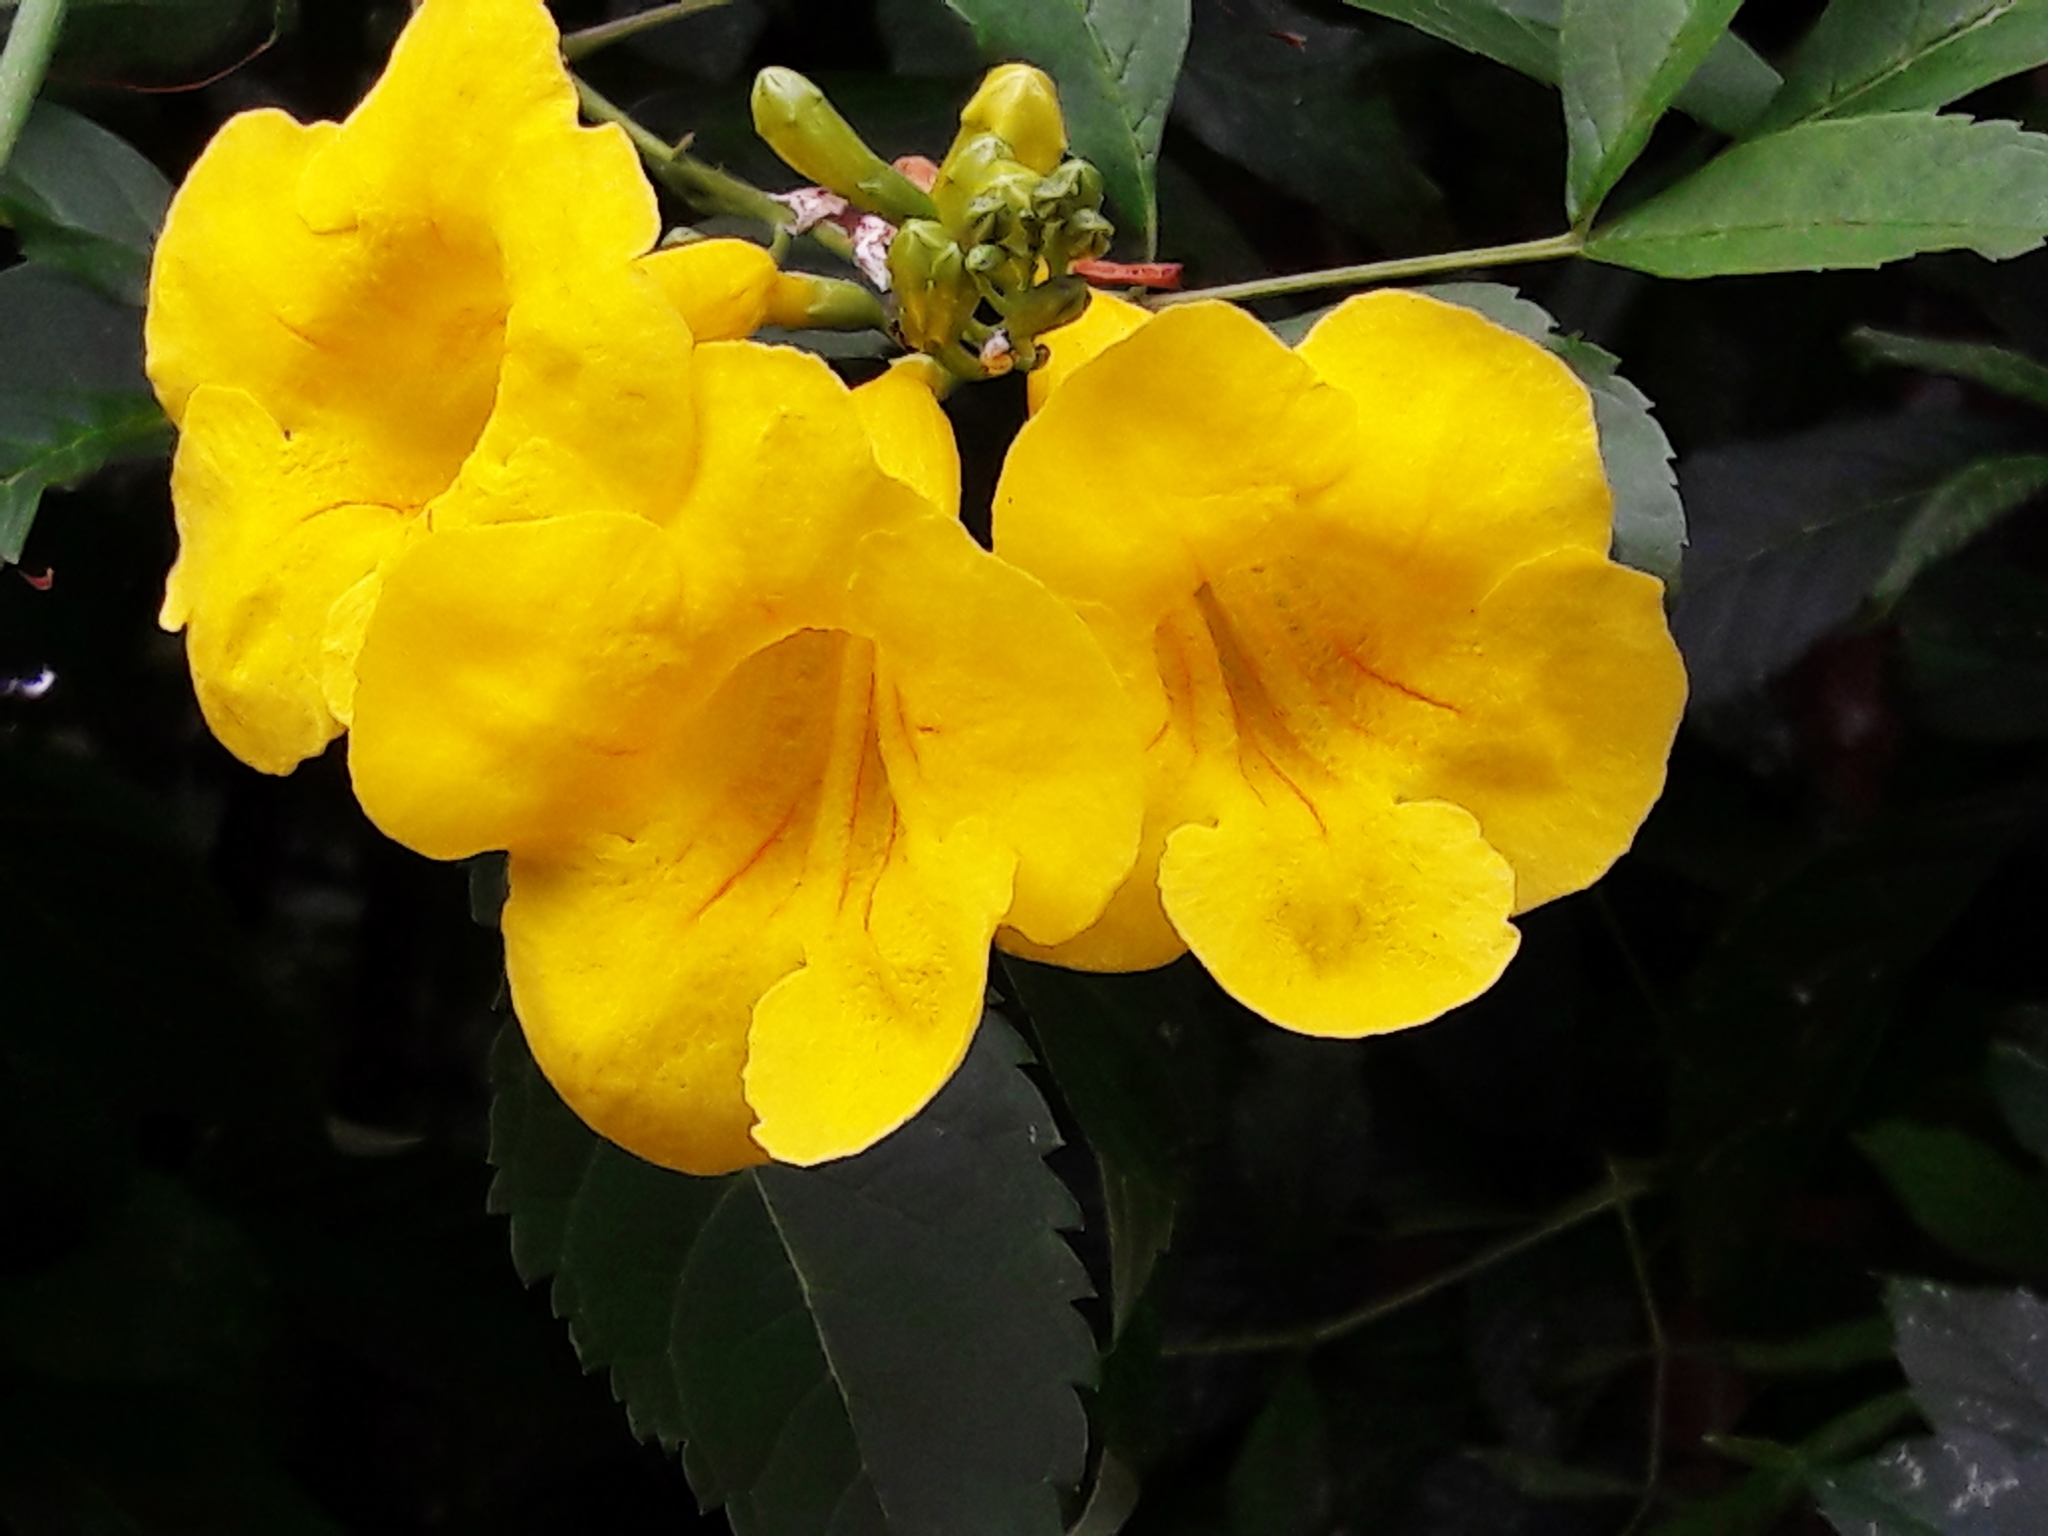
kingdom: Plantae
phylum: Tracheophyta
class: Magnoliopsida
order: Lamiales
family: Bignoniaceae
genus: Tecoma
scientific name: Tecoma stans
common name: Yellow trumpetbush
